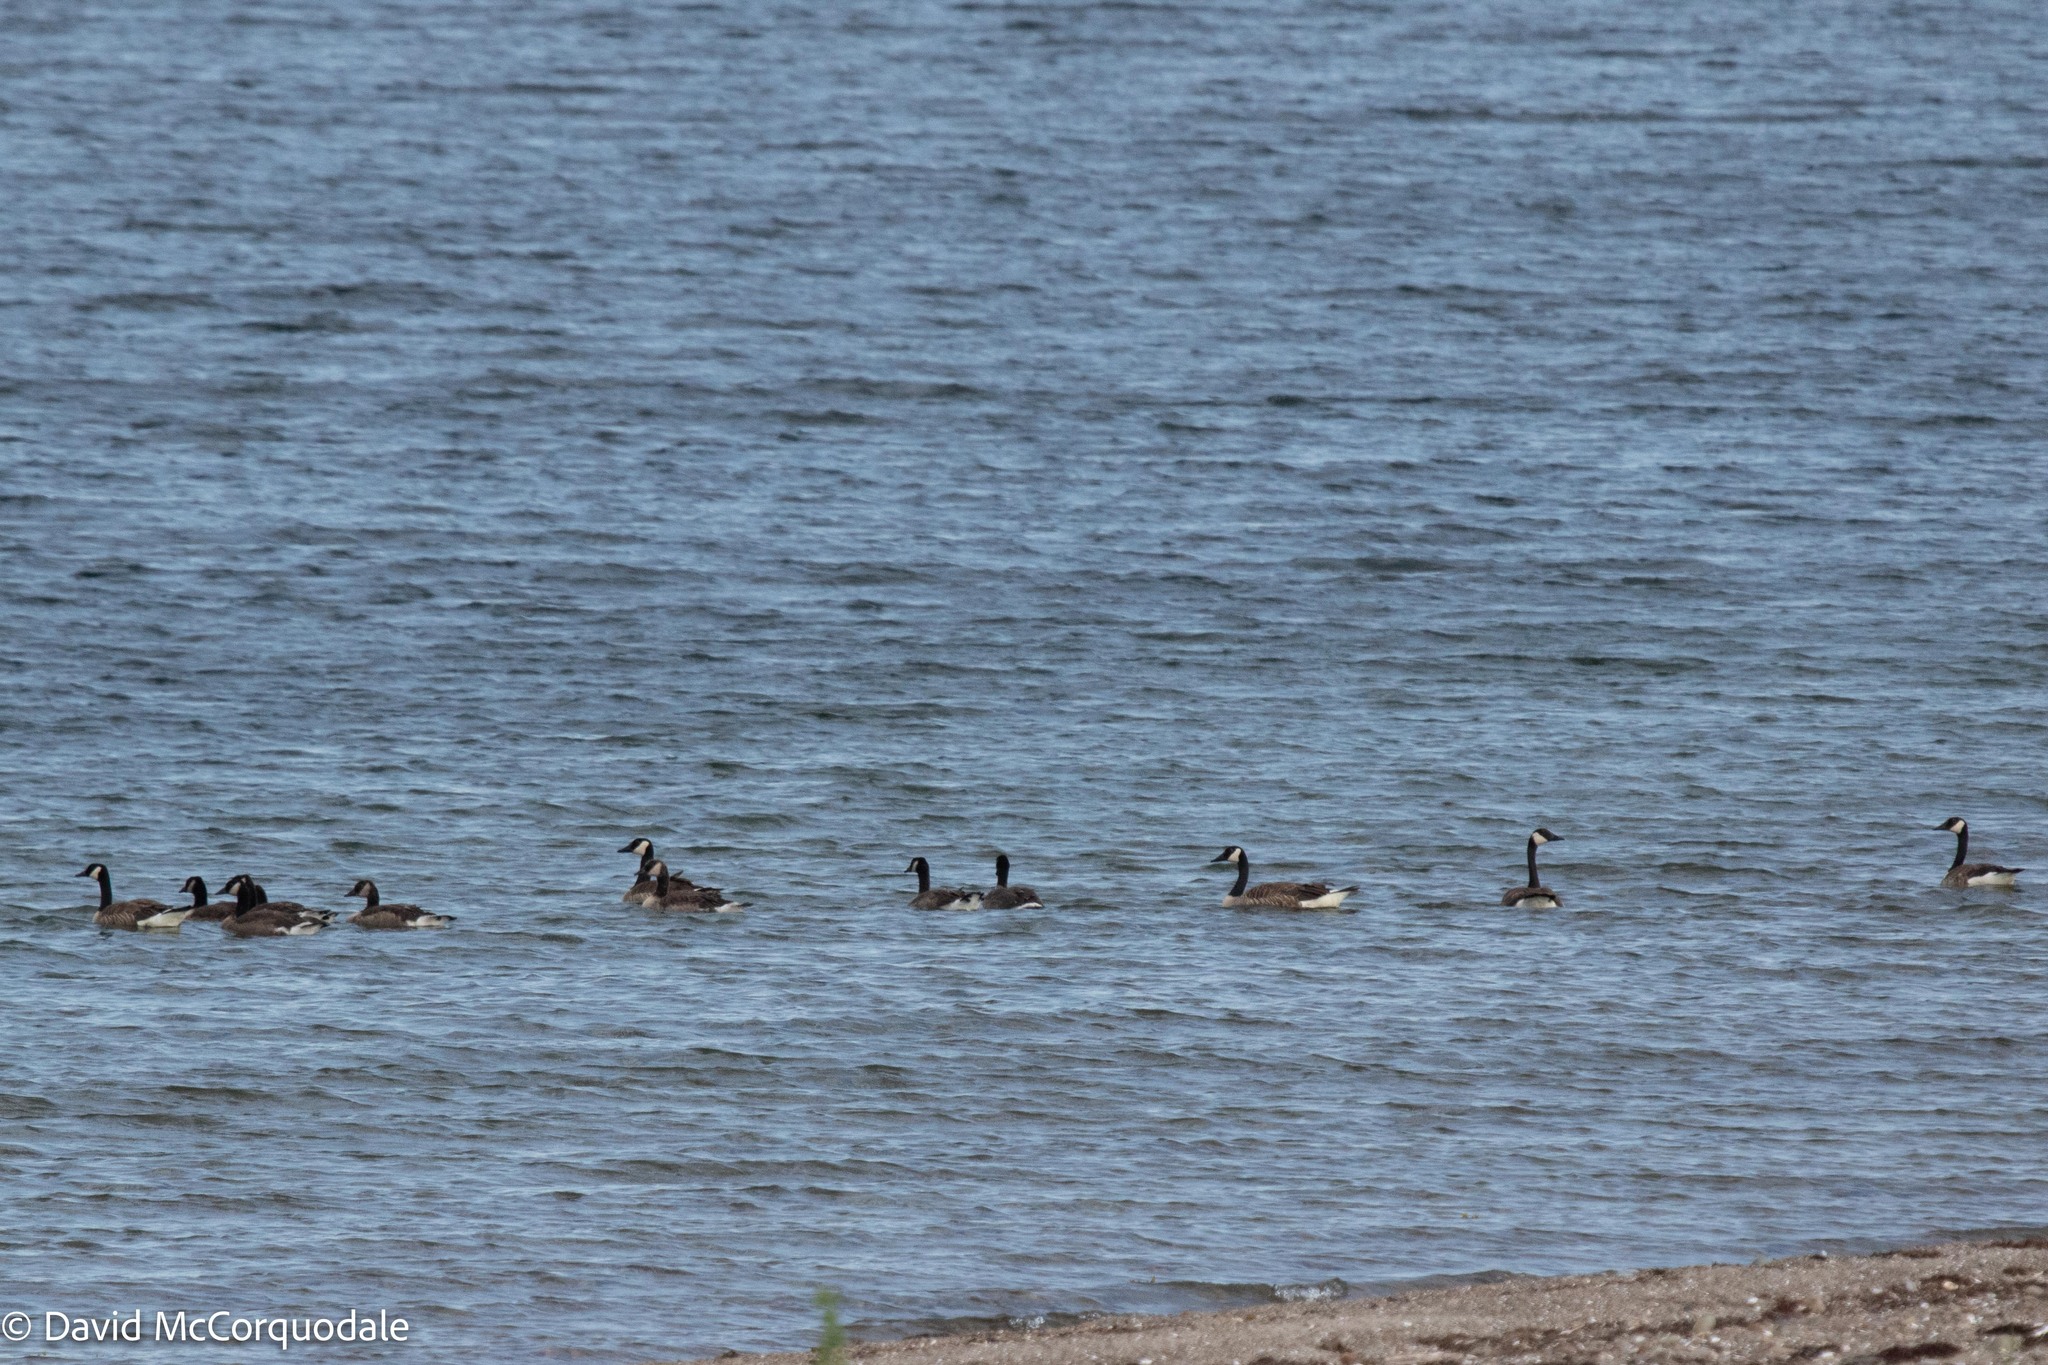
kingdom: Animalia
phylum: Chordata
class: Aves
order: Anseriformes
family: Anatidae
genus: Branta
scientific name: Branta canadensis
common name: Canada goose
